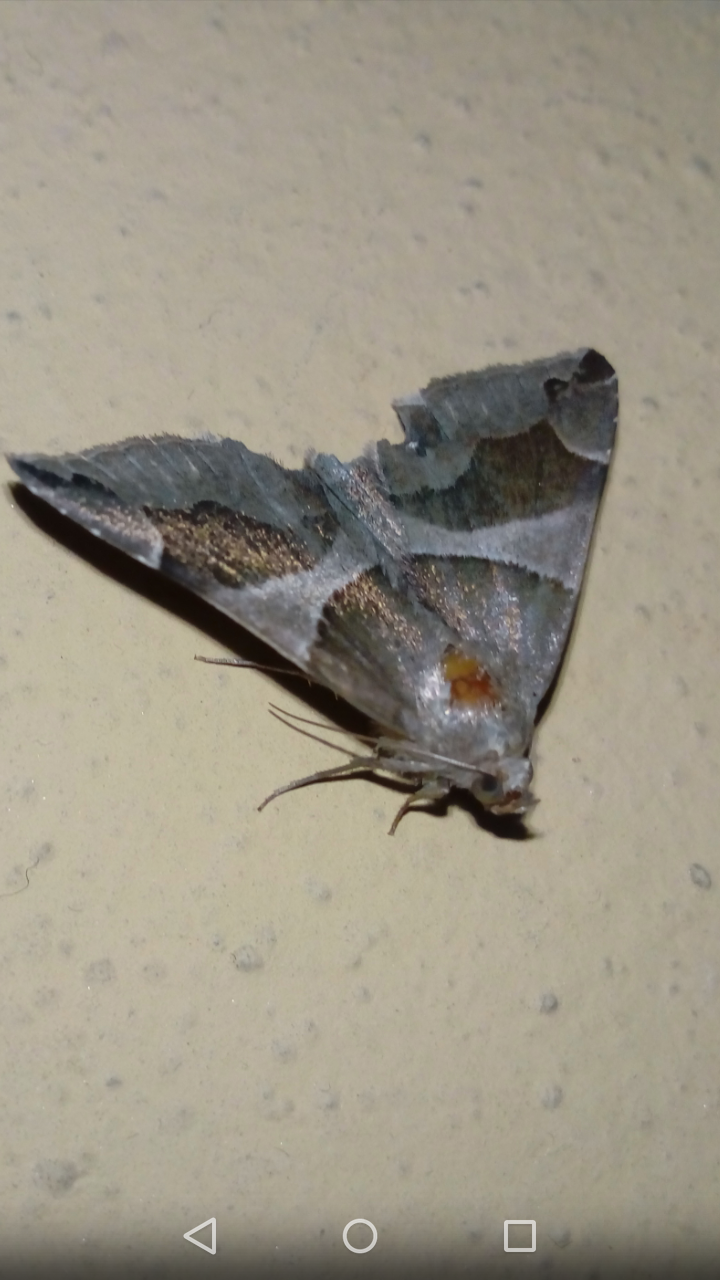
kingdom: Animalia
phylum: Arthropoda
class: Insecta
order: Lepidoptera
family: Erebidae
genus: Dysgonia
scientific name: Dysgonia algira
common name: Passenger
